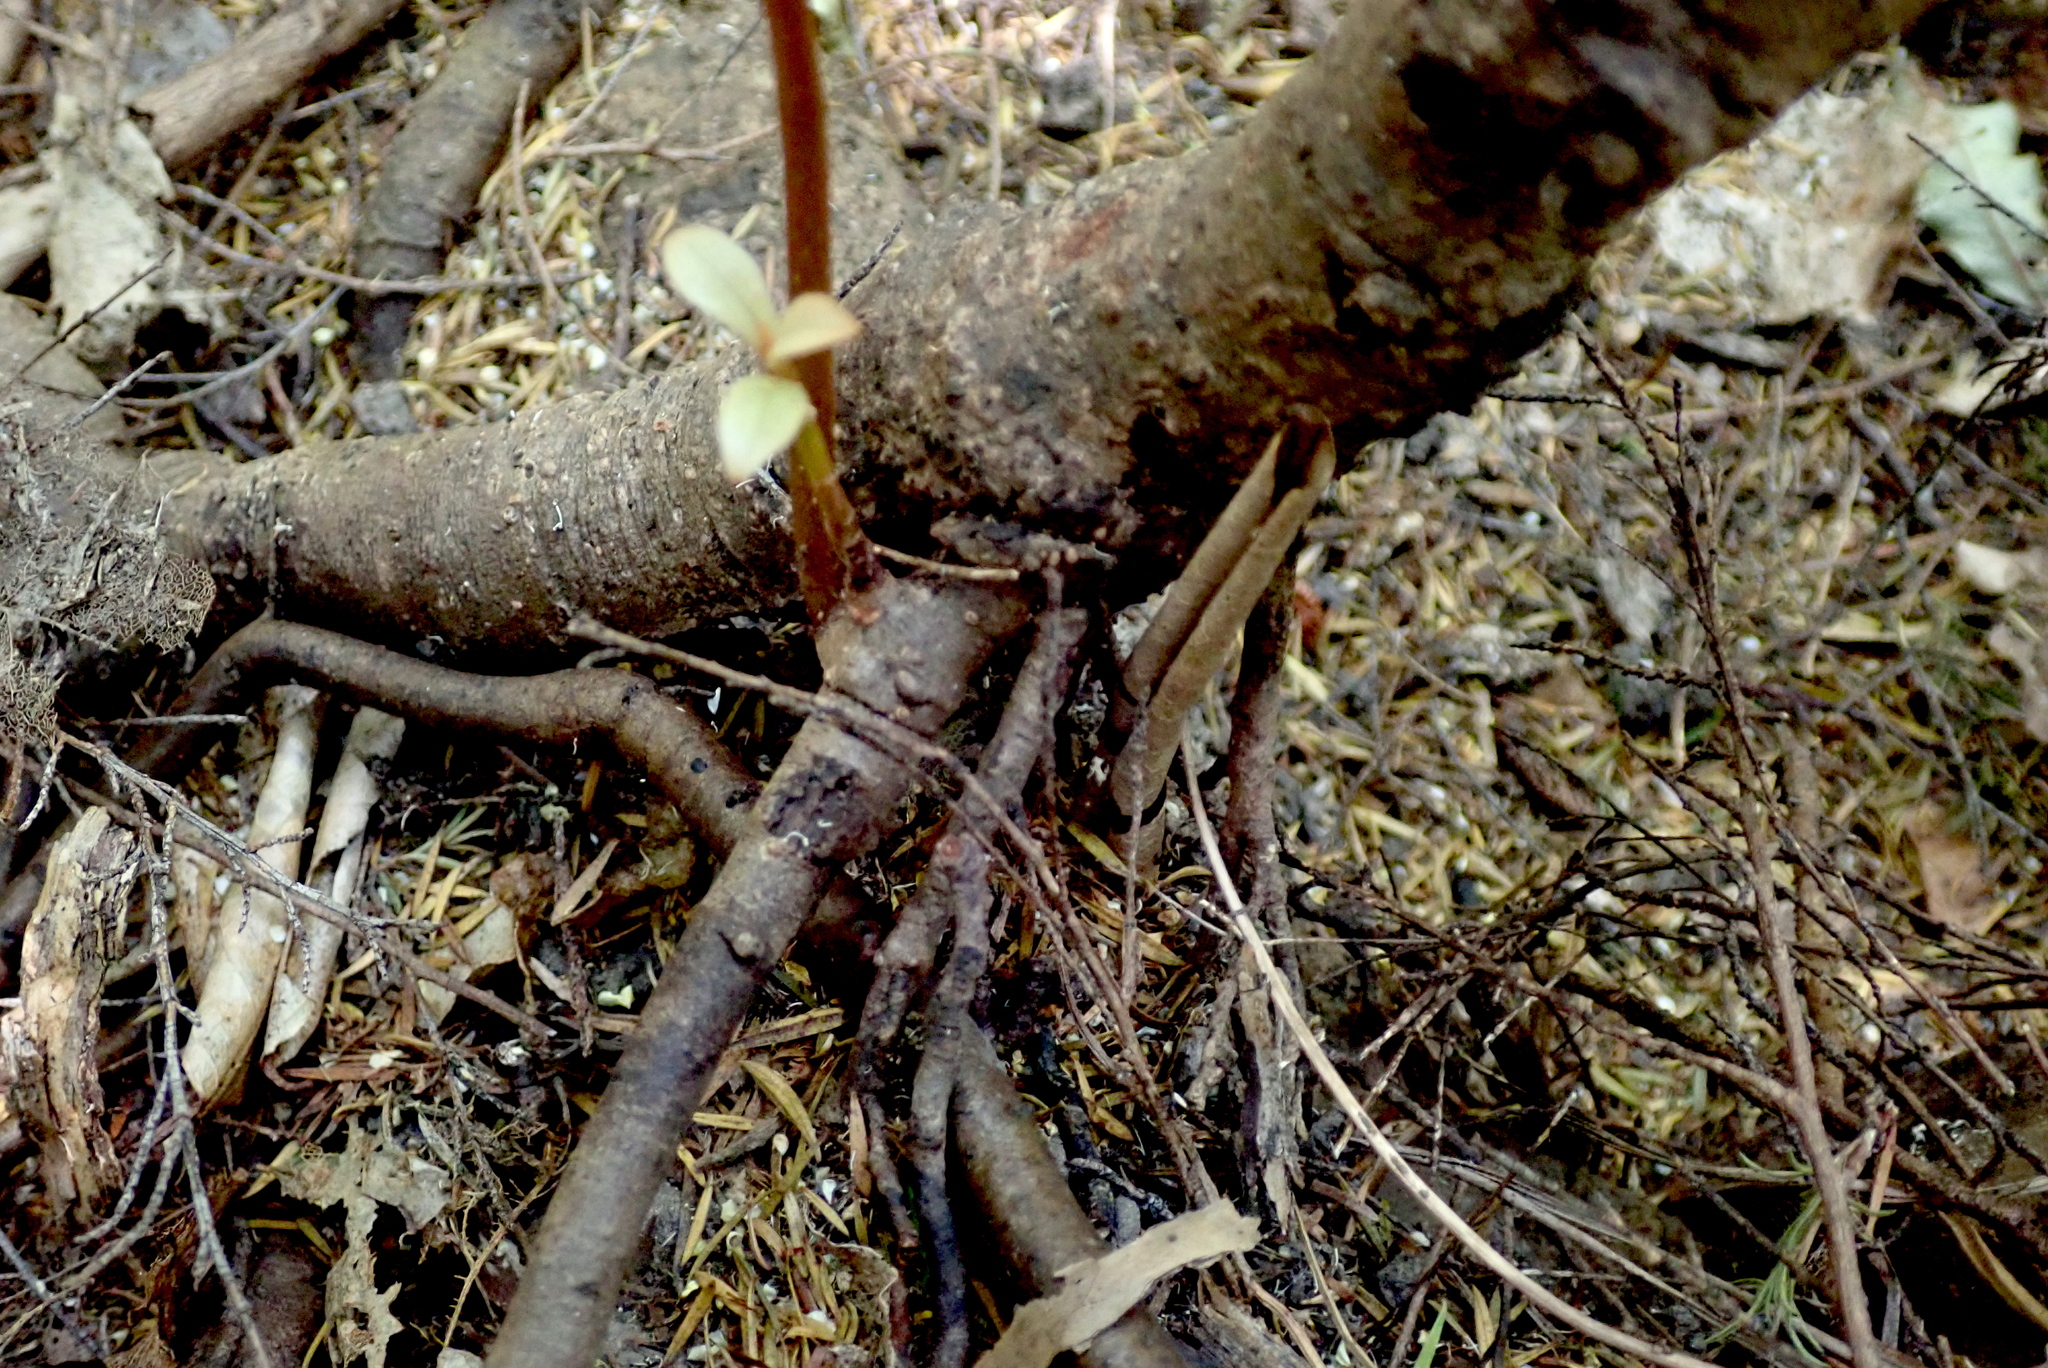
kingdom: Plantae
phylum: Tracheophyta
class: Magnoliopsida
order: Ericales
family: Primulaceae
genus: Myrsine
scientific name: Myrsine australis
